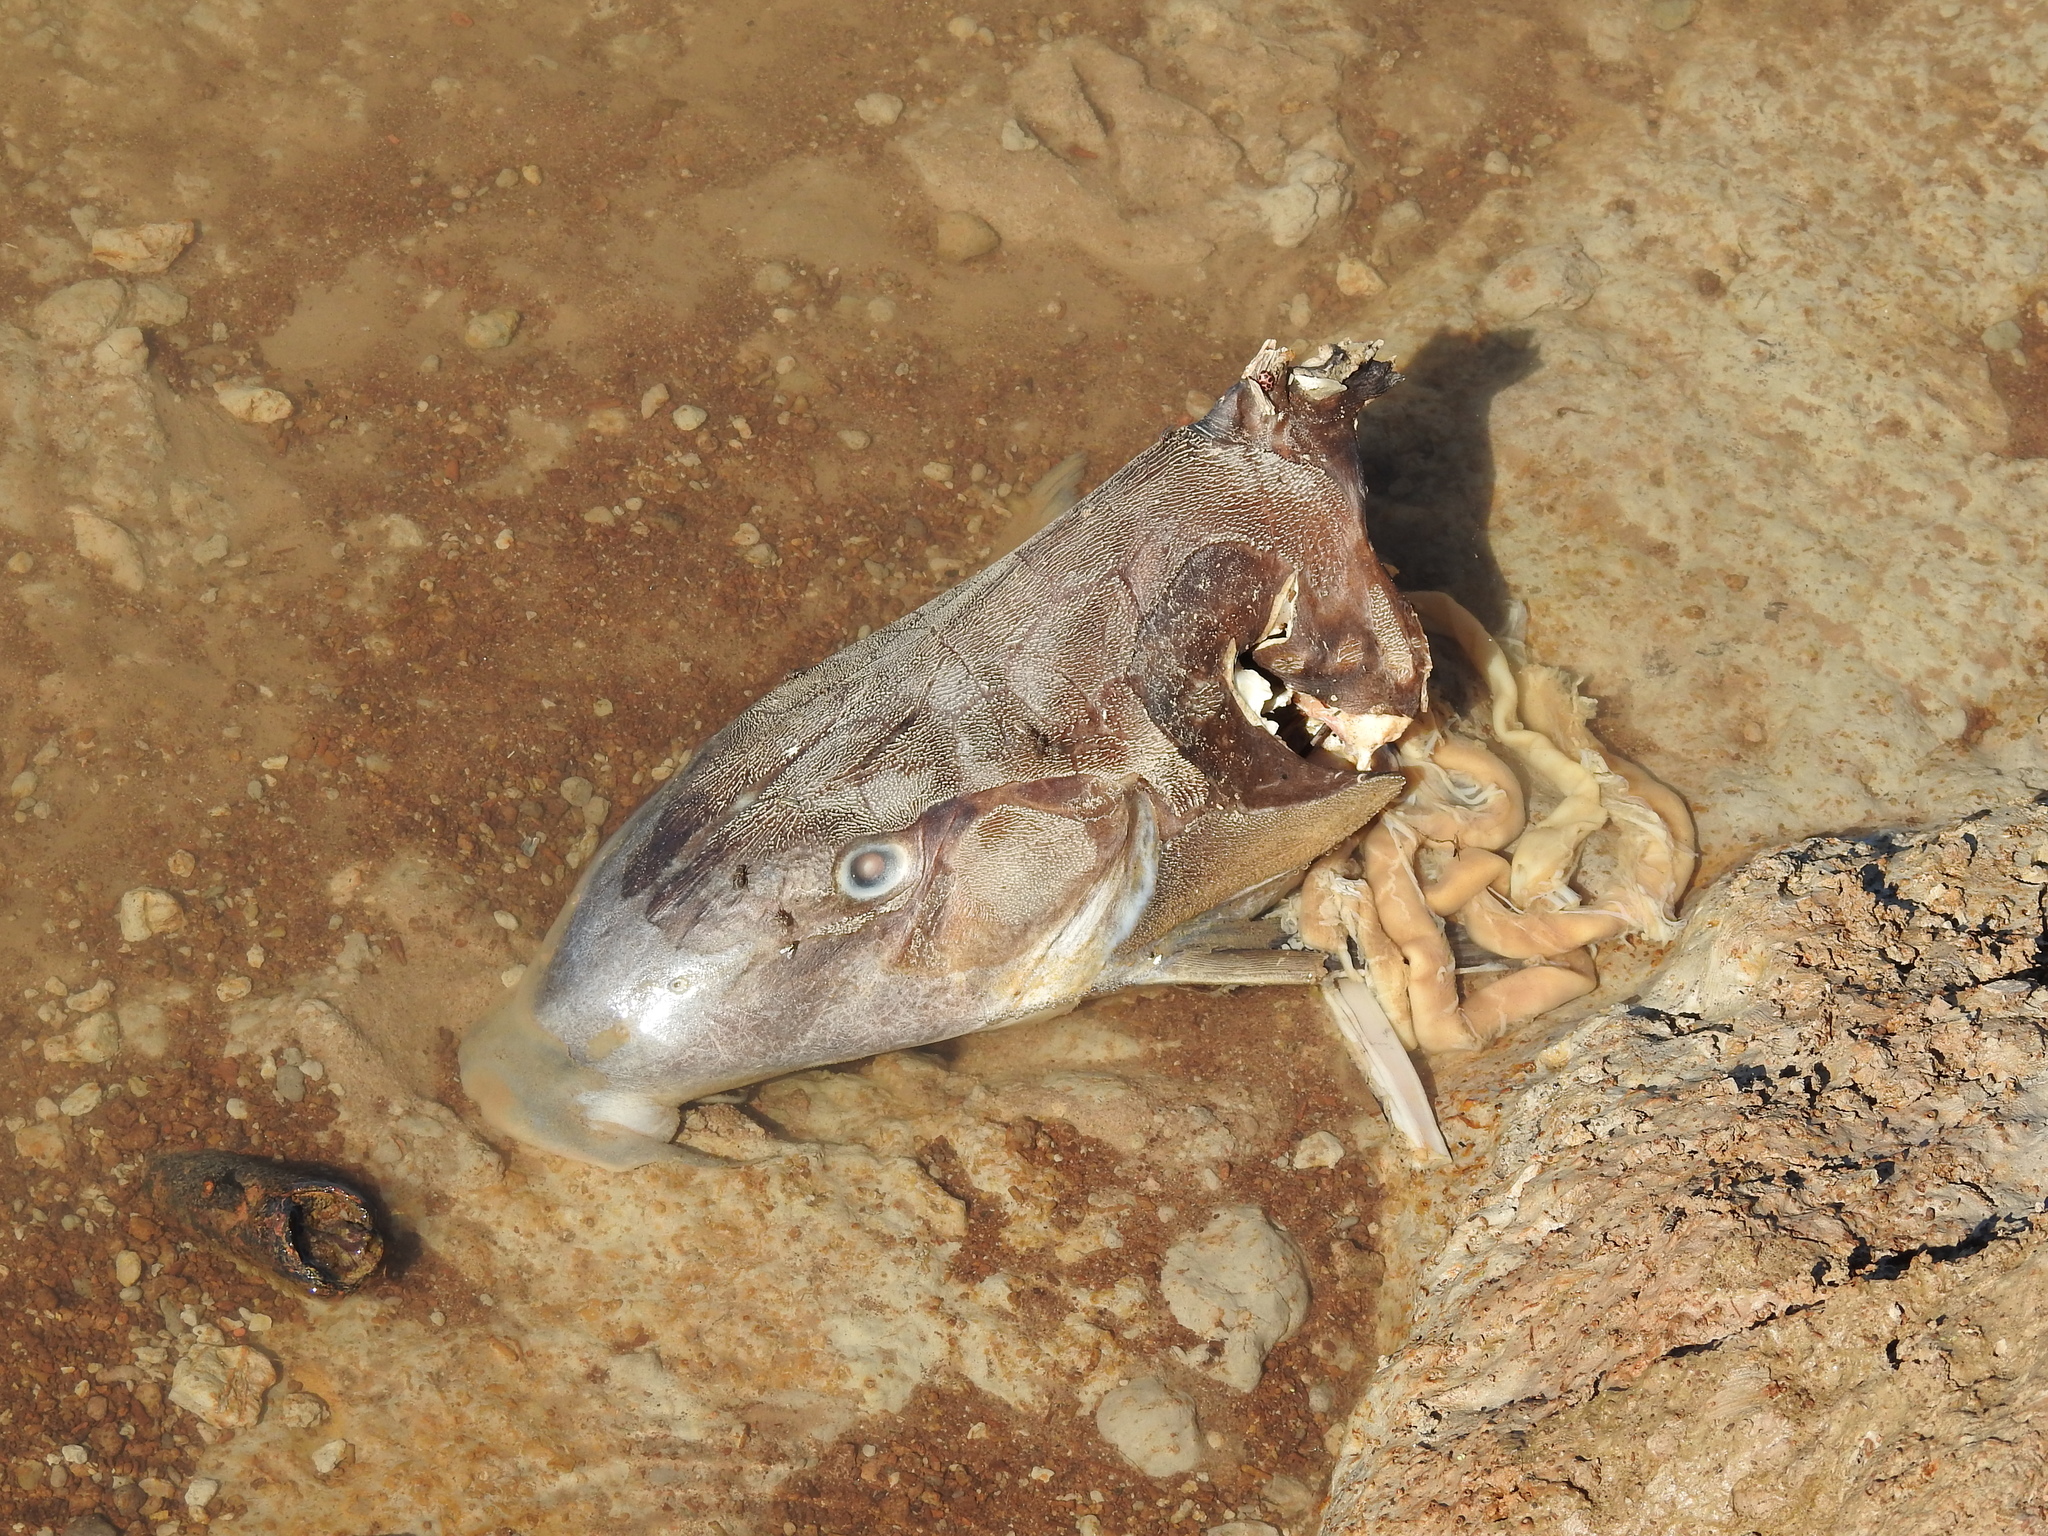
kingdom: Animalia
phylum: Chordata
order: Siluriformes
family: Doradidae
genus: Oxydoras
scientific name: Oxydoras kneri
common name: Catfish
